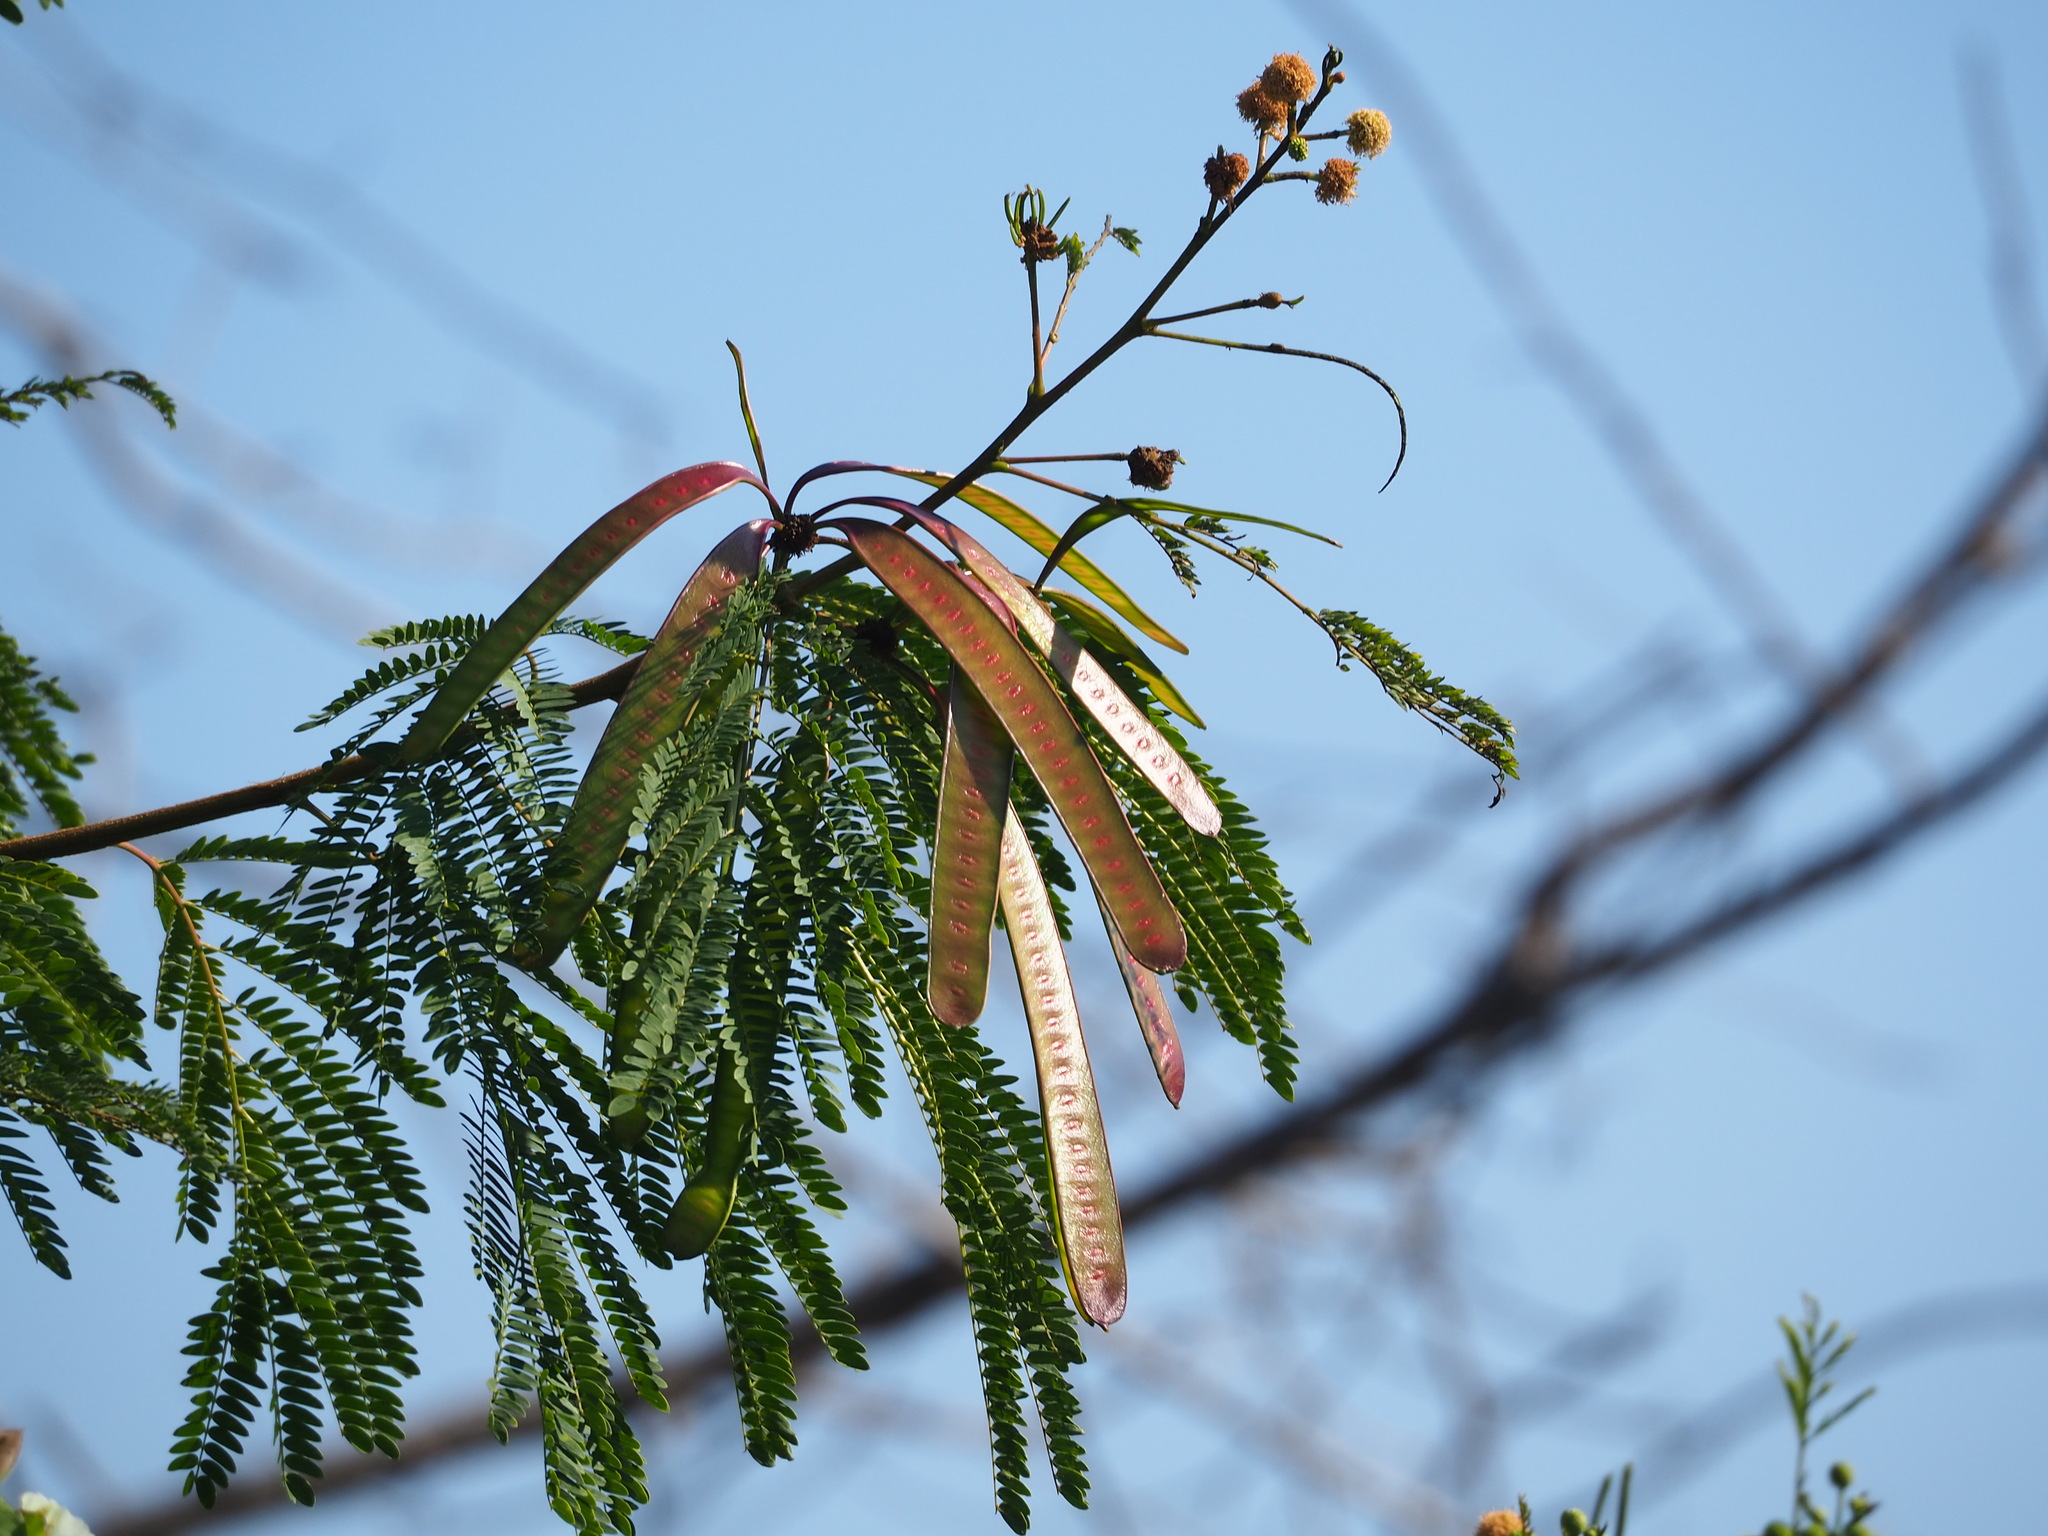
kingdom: Plantae
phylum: Tracheophyta
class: Magnoliopsida
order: Fabales
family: Fabaceae
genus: Leucaena
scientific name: Leucaena leucocephala
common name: White leadtree
